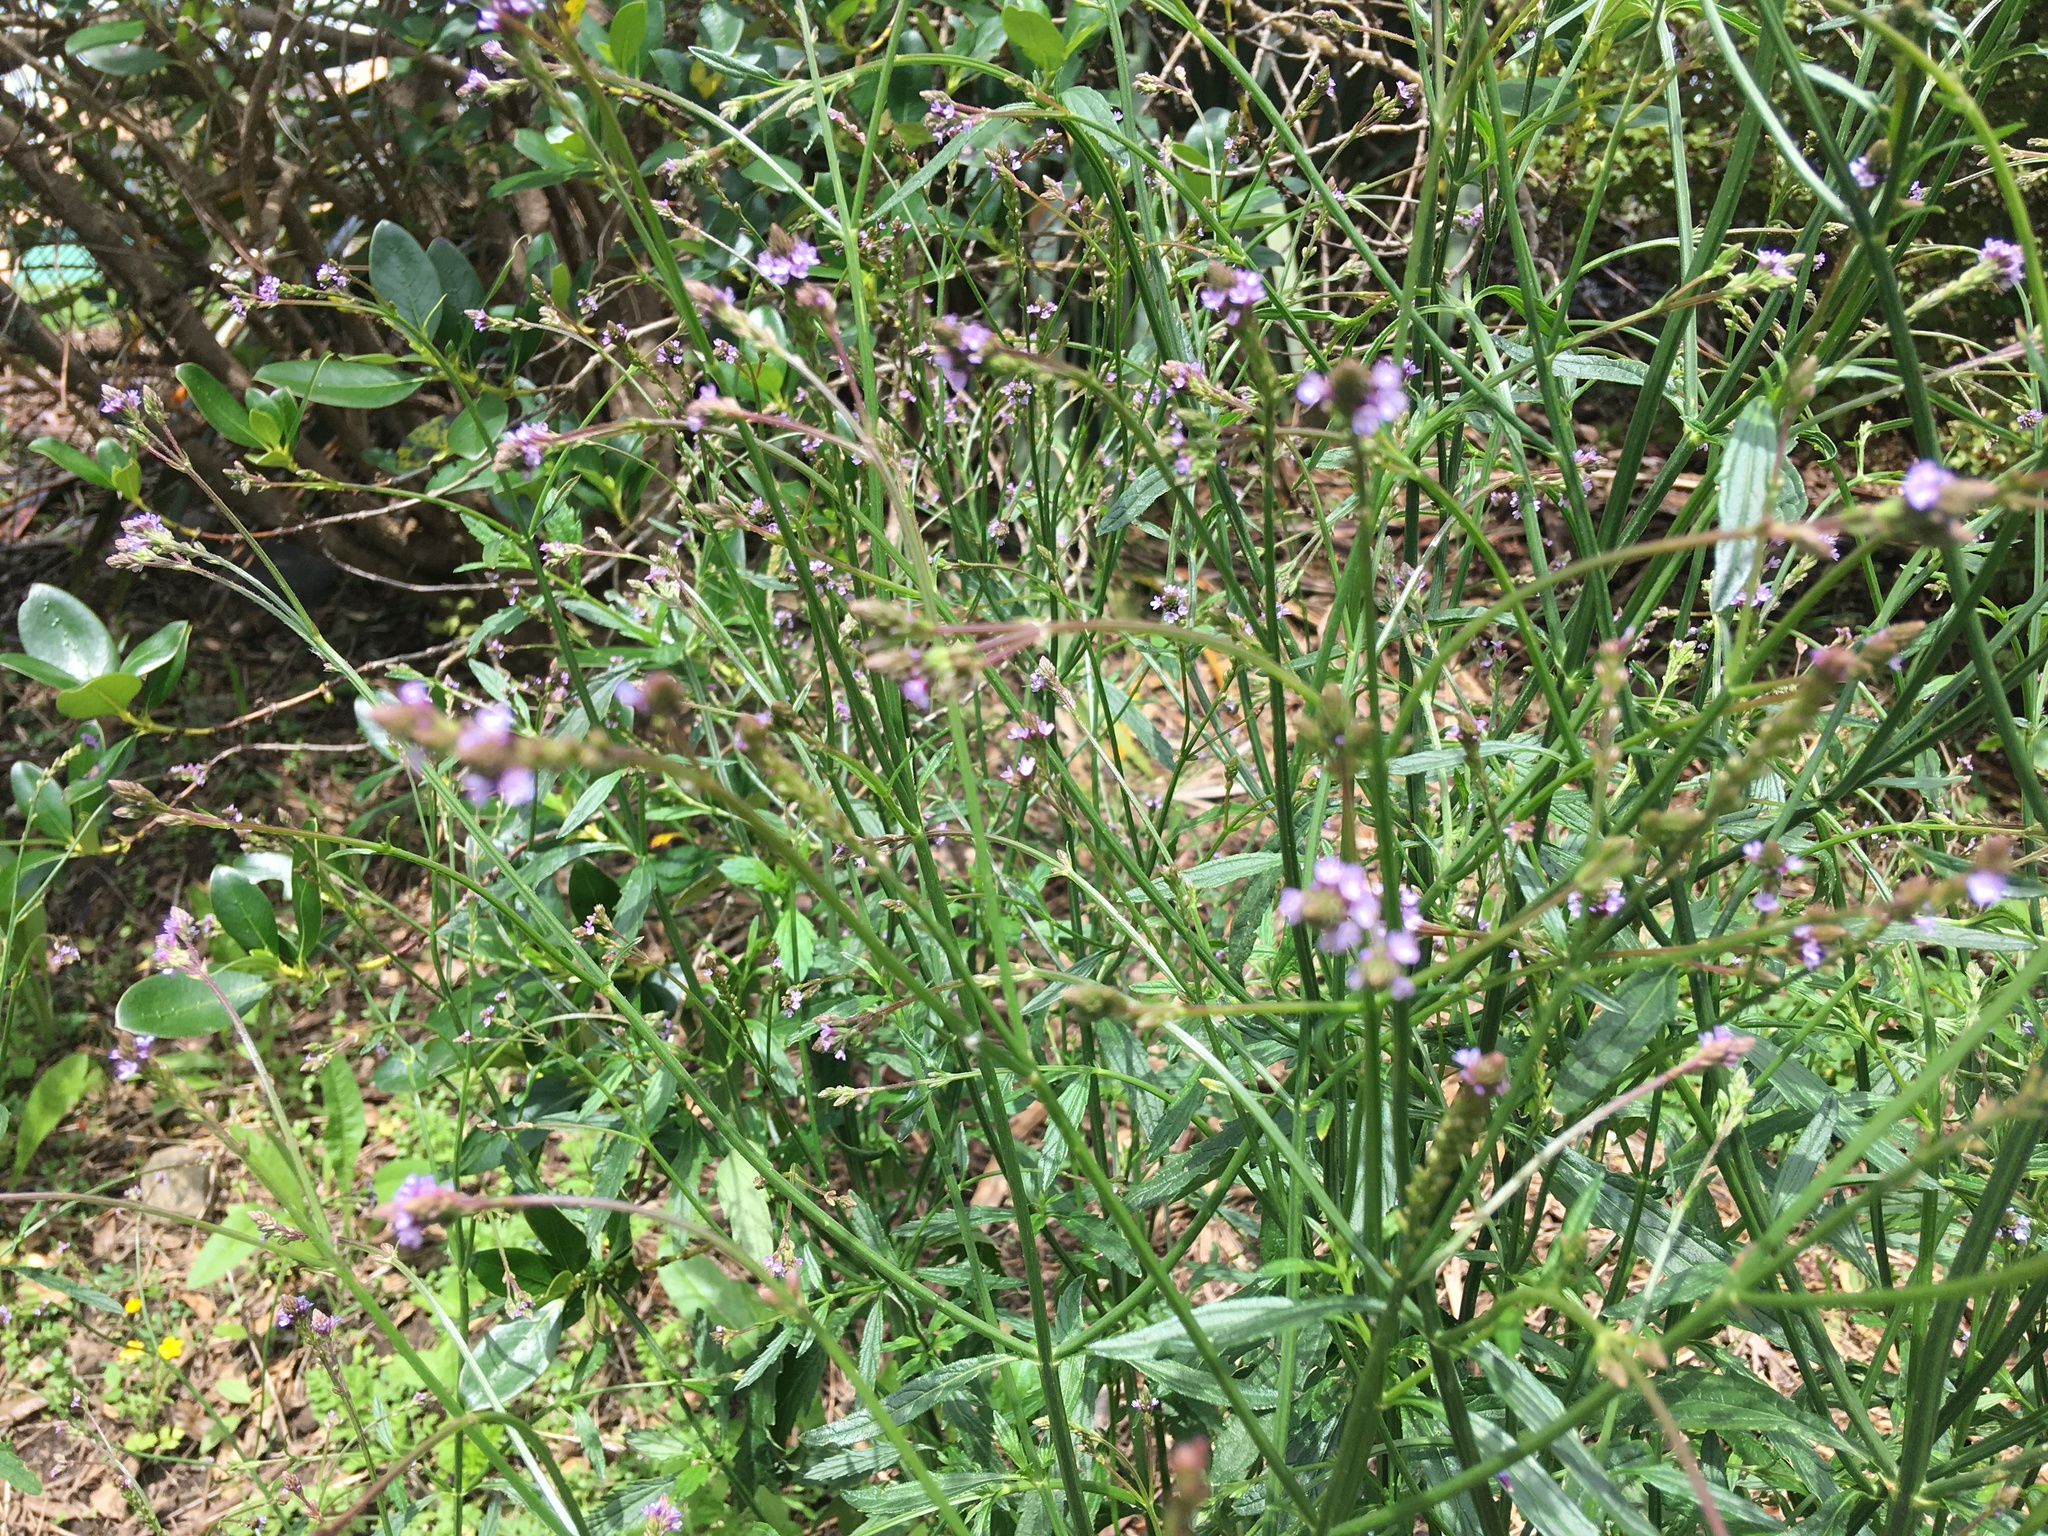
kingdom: Plantae
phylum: Tracheophyta
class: Magnoliopsida
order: Lamiales
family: Verbenaceae
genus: Verbena
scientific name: Verbena litoralis
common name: Seashore vervain
